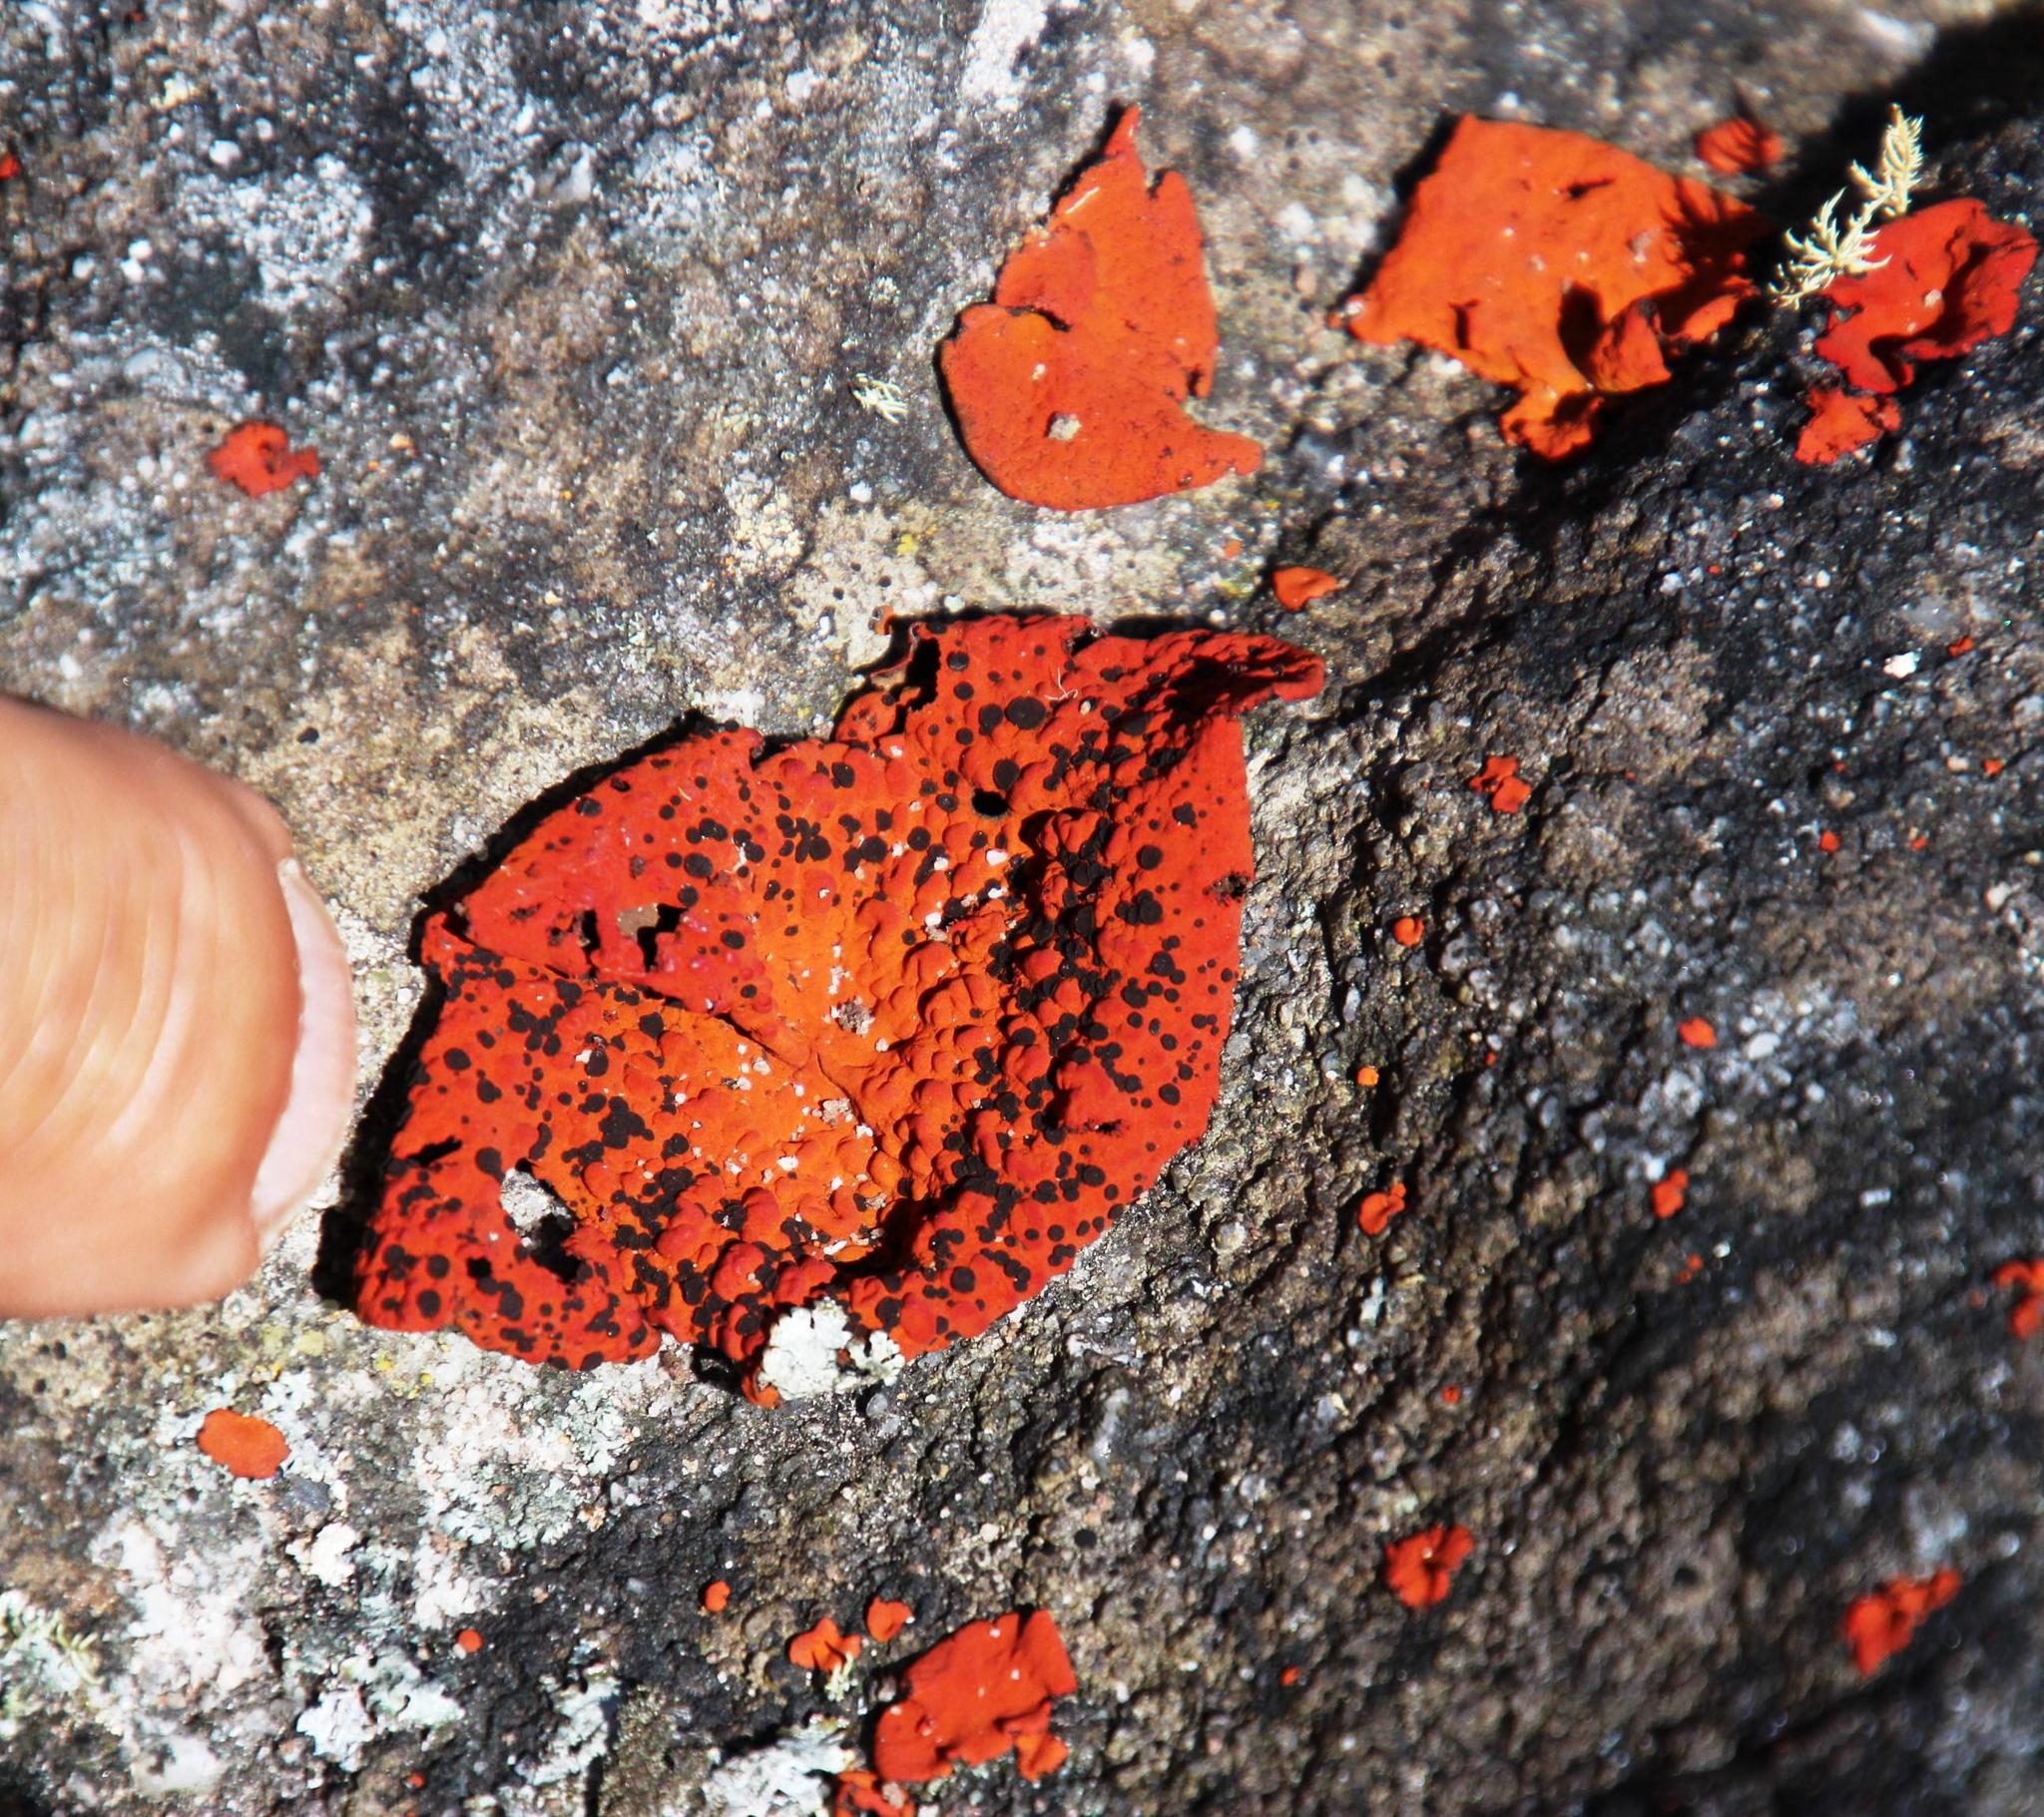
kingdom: Fungi
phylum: Ascomycota
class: Lecanoromycetes
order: Umbilicariales
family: Umbilicariaceae
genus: Lasallia
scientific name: Lasallia rubiginosa
